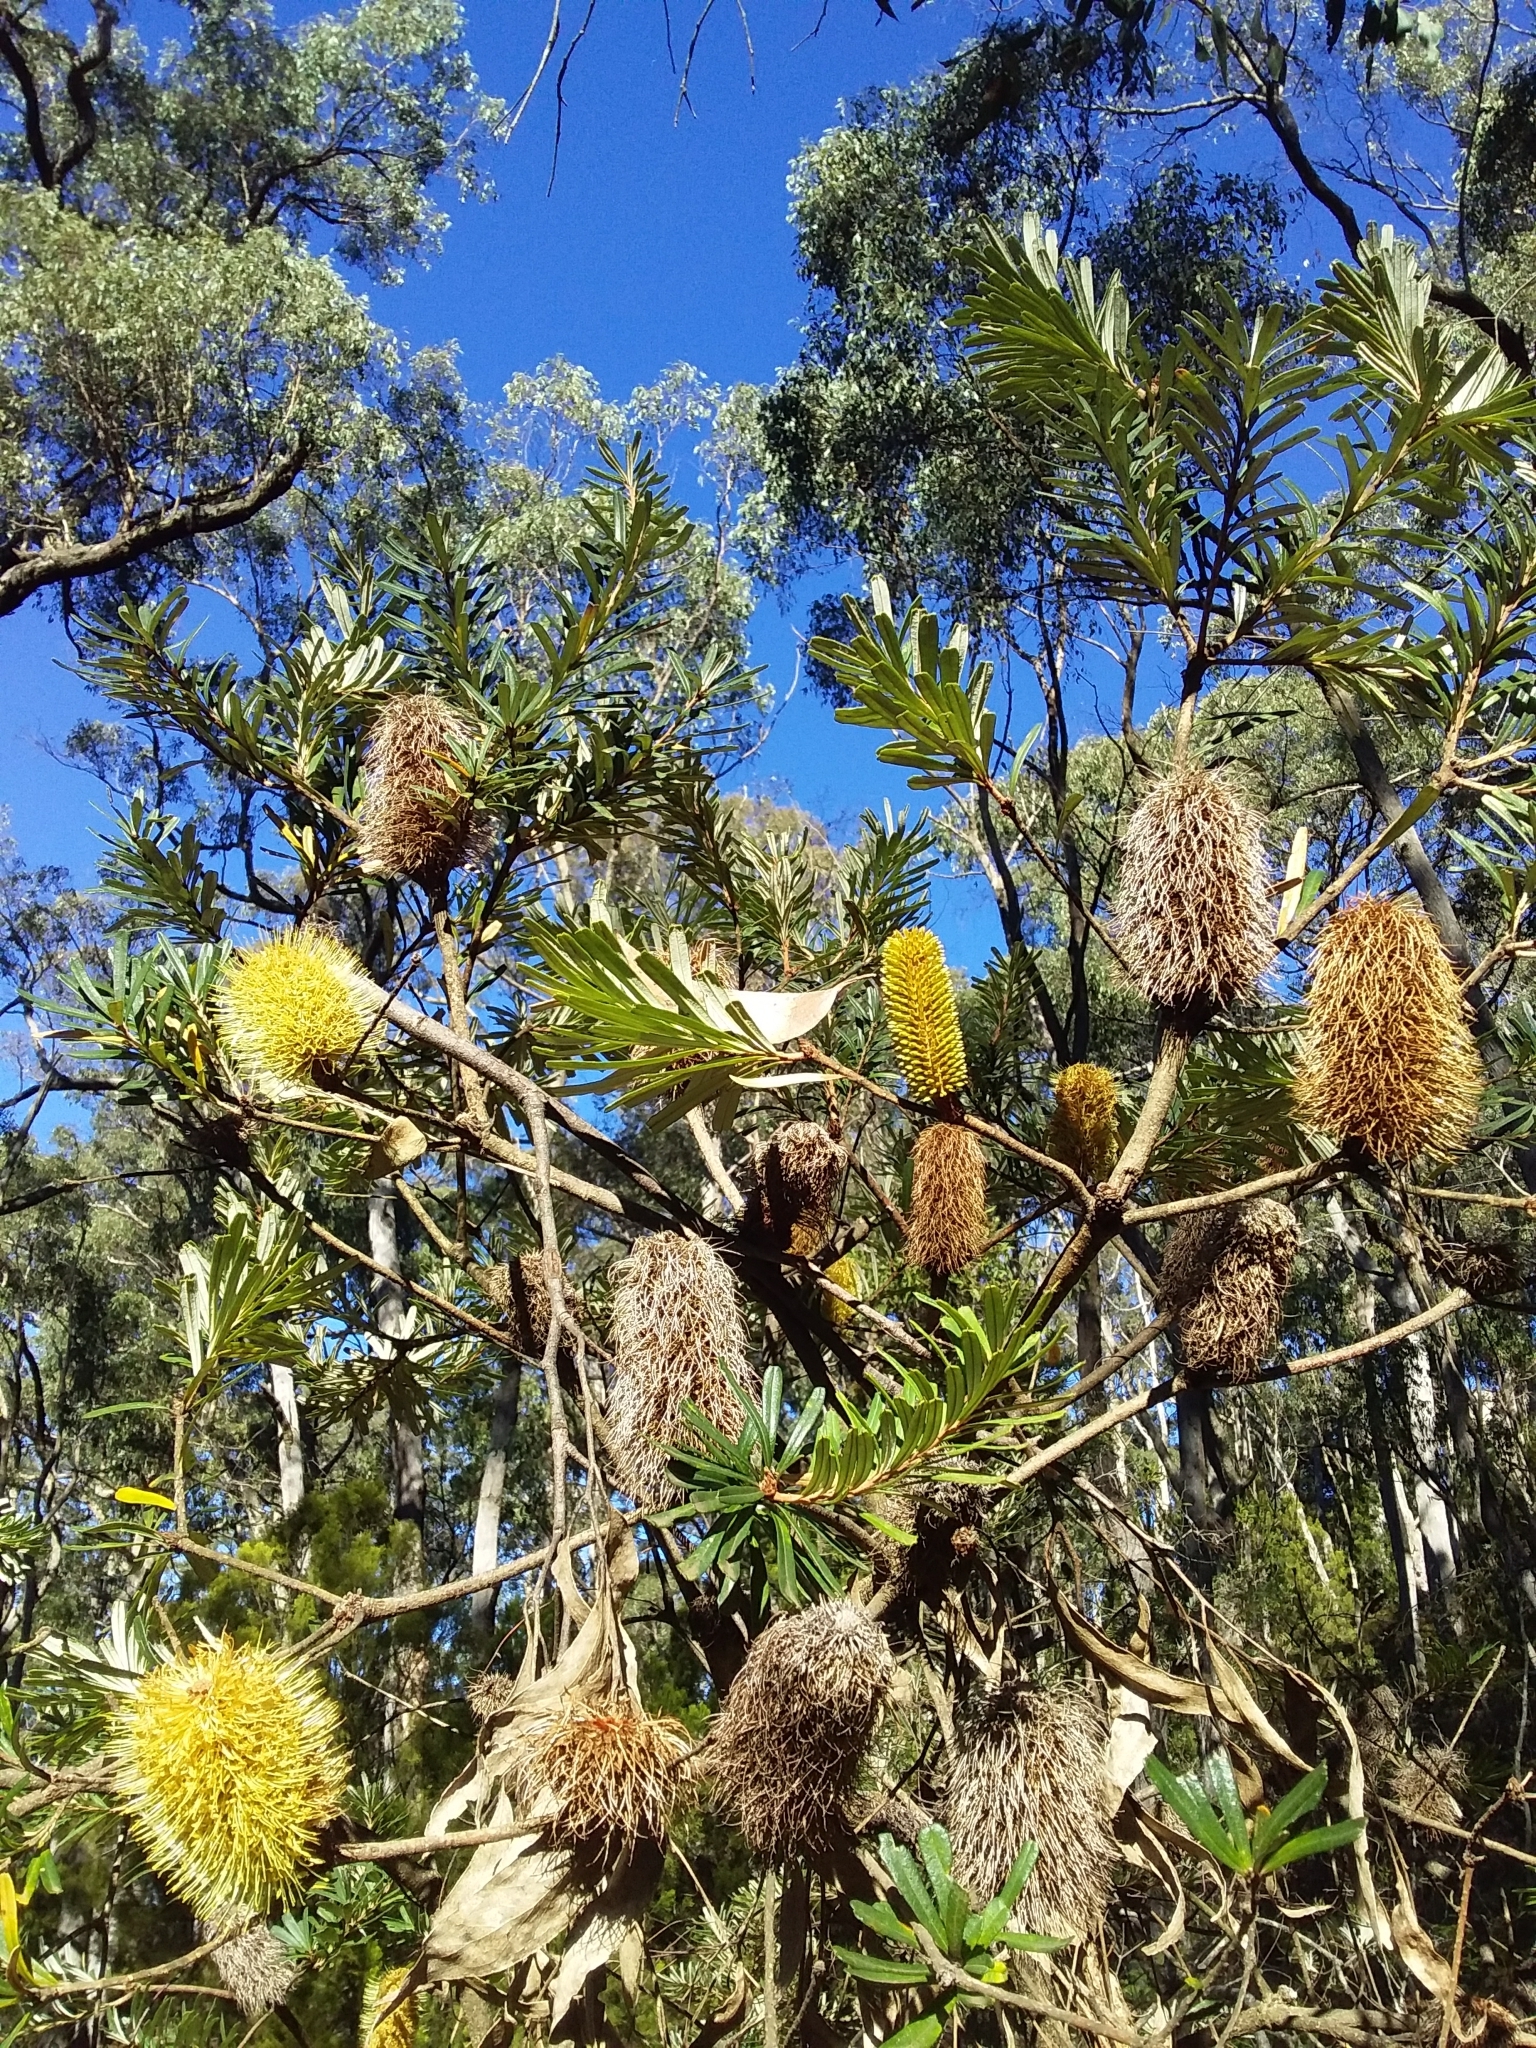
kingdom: Plantae
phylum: Tracheophyta
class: Magnoliopsida
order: Proteales
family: Proteaceae
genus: Banksia
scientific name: Banksia marginata
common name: Silver banksia
